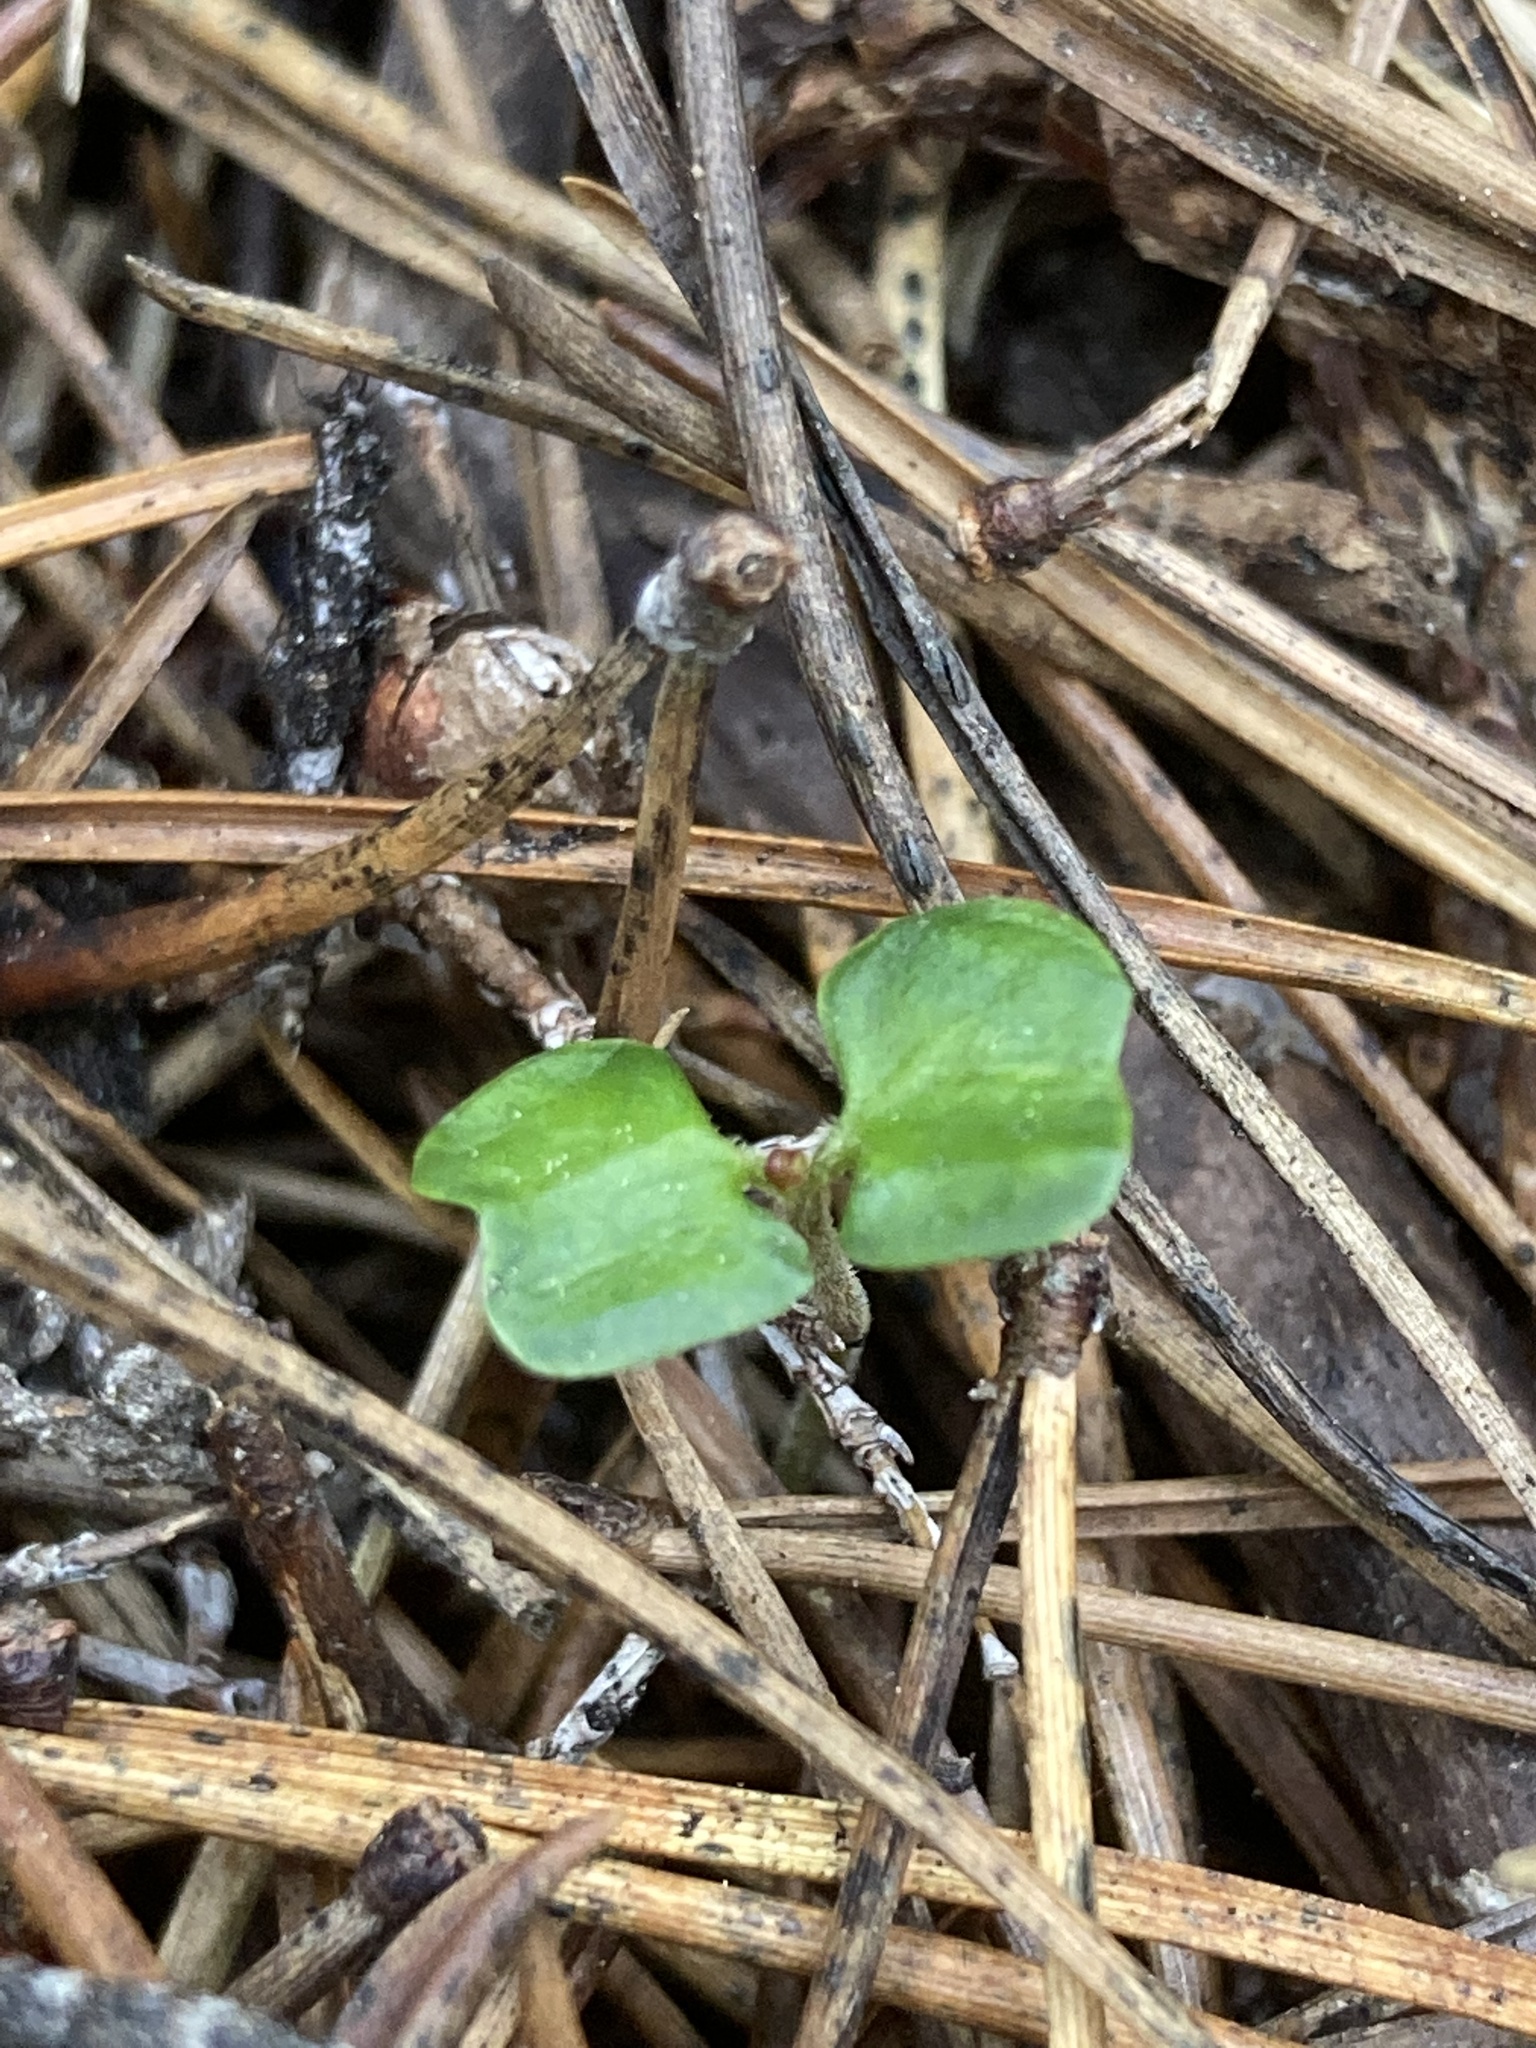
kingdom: Plantae
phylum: Tracheophyta
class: Magnoliopsida
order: Fagales
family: Nothofagaceae
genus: Nothofagus
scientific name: Nothofagus menziesii
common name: Silver beech
